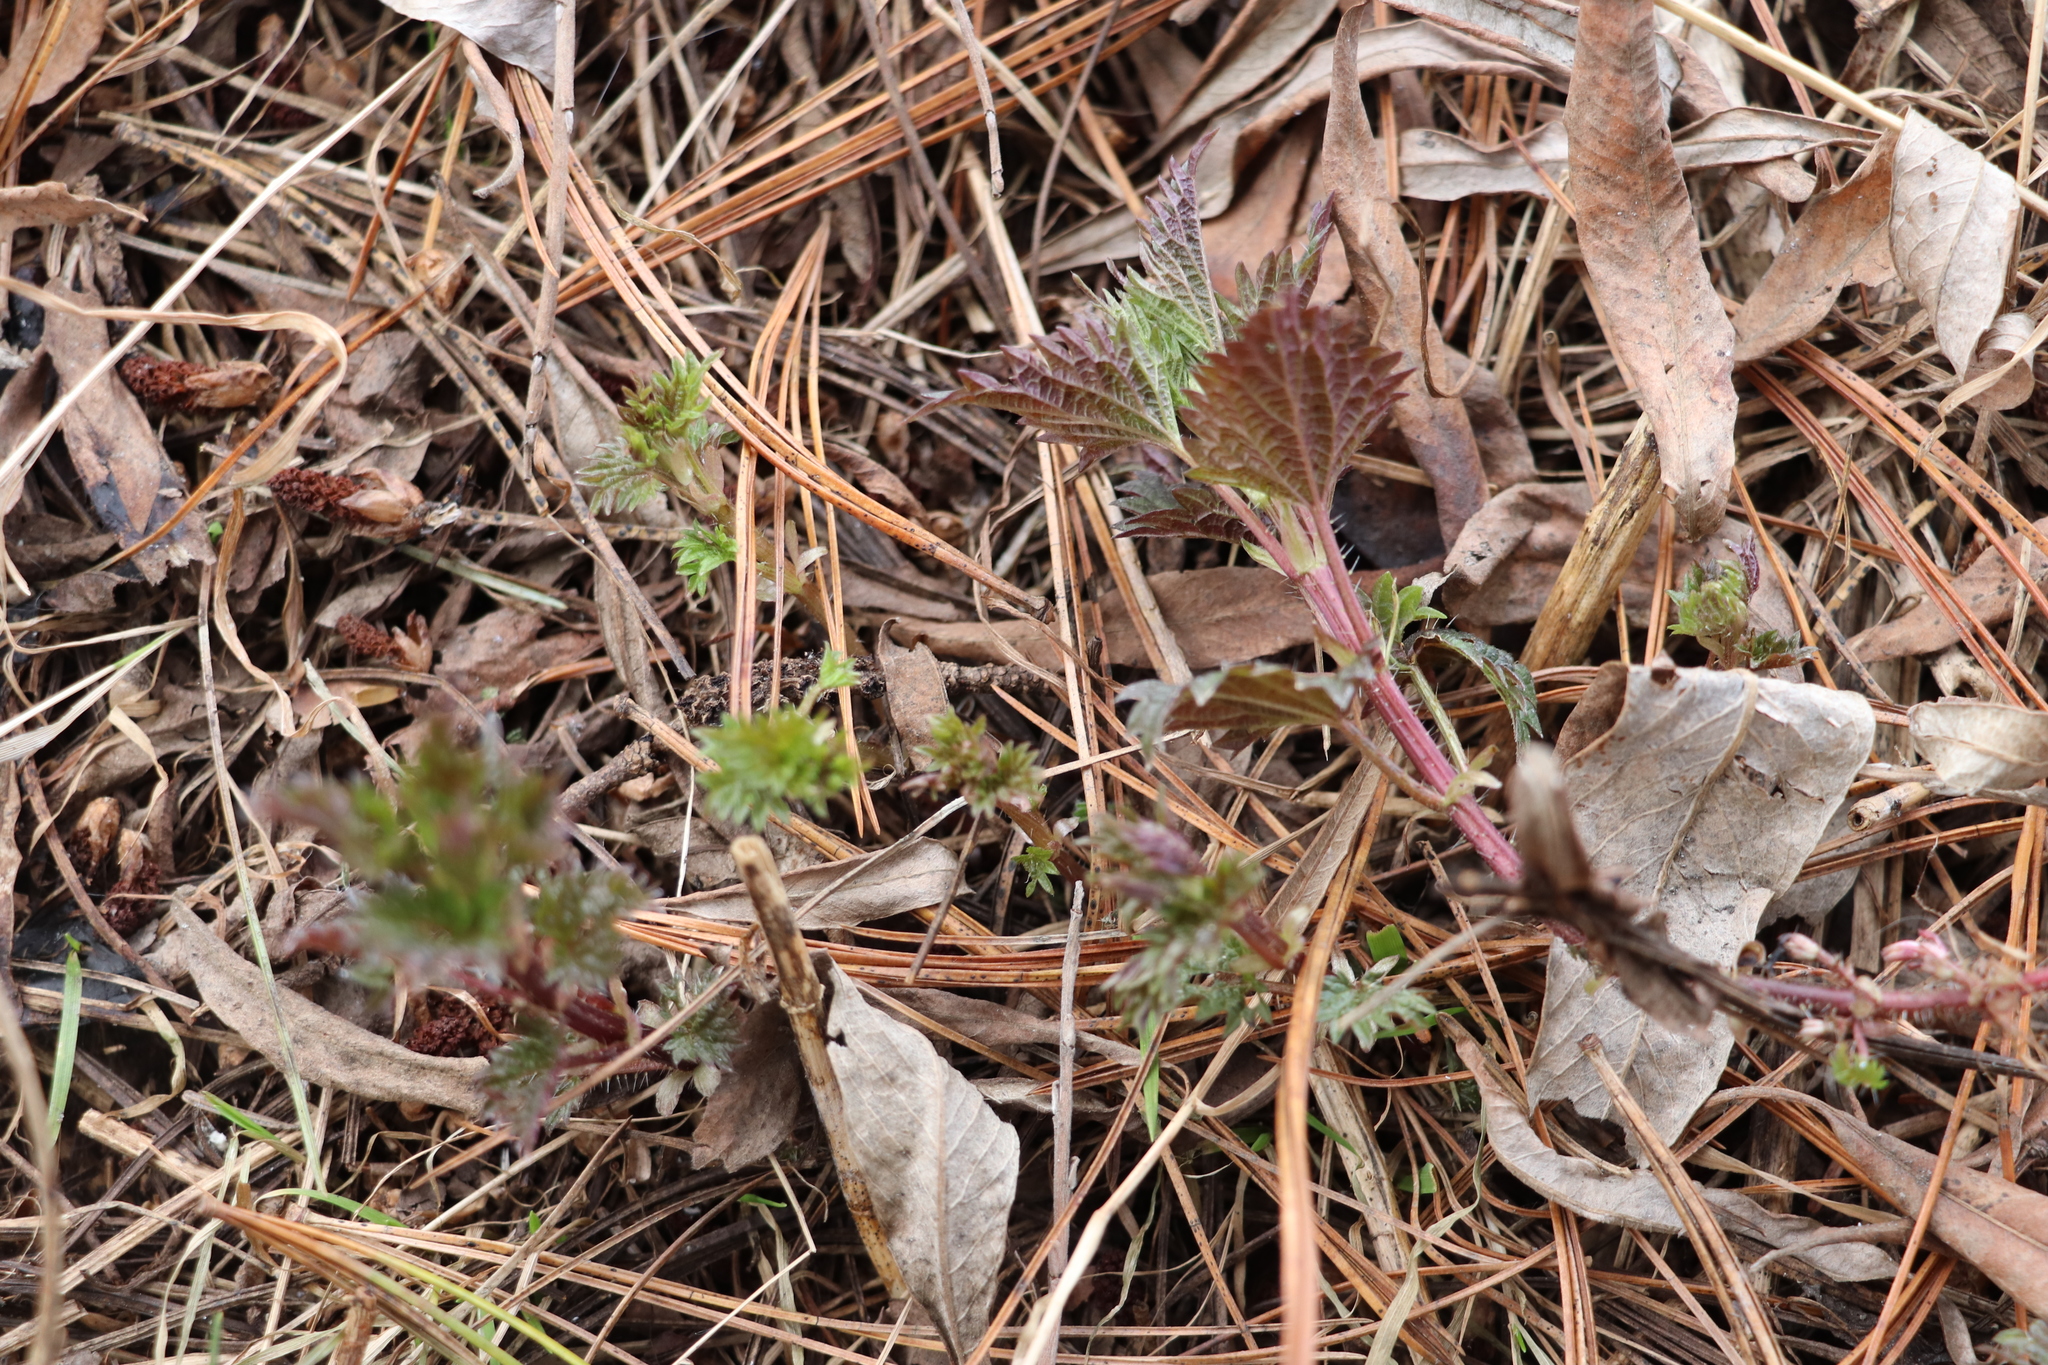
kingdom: Plantae
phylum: Tracheophyta
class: Magnoliopsida
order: Rosales
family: Urticaceae
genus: Urtica
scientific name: Urtica dioica
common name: Common nettle
